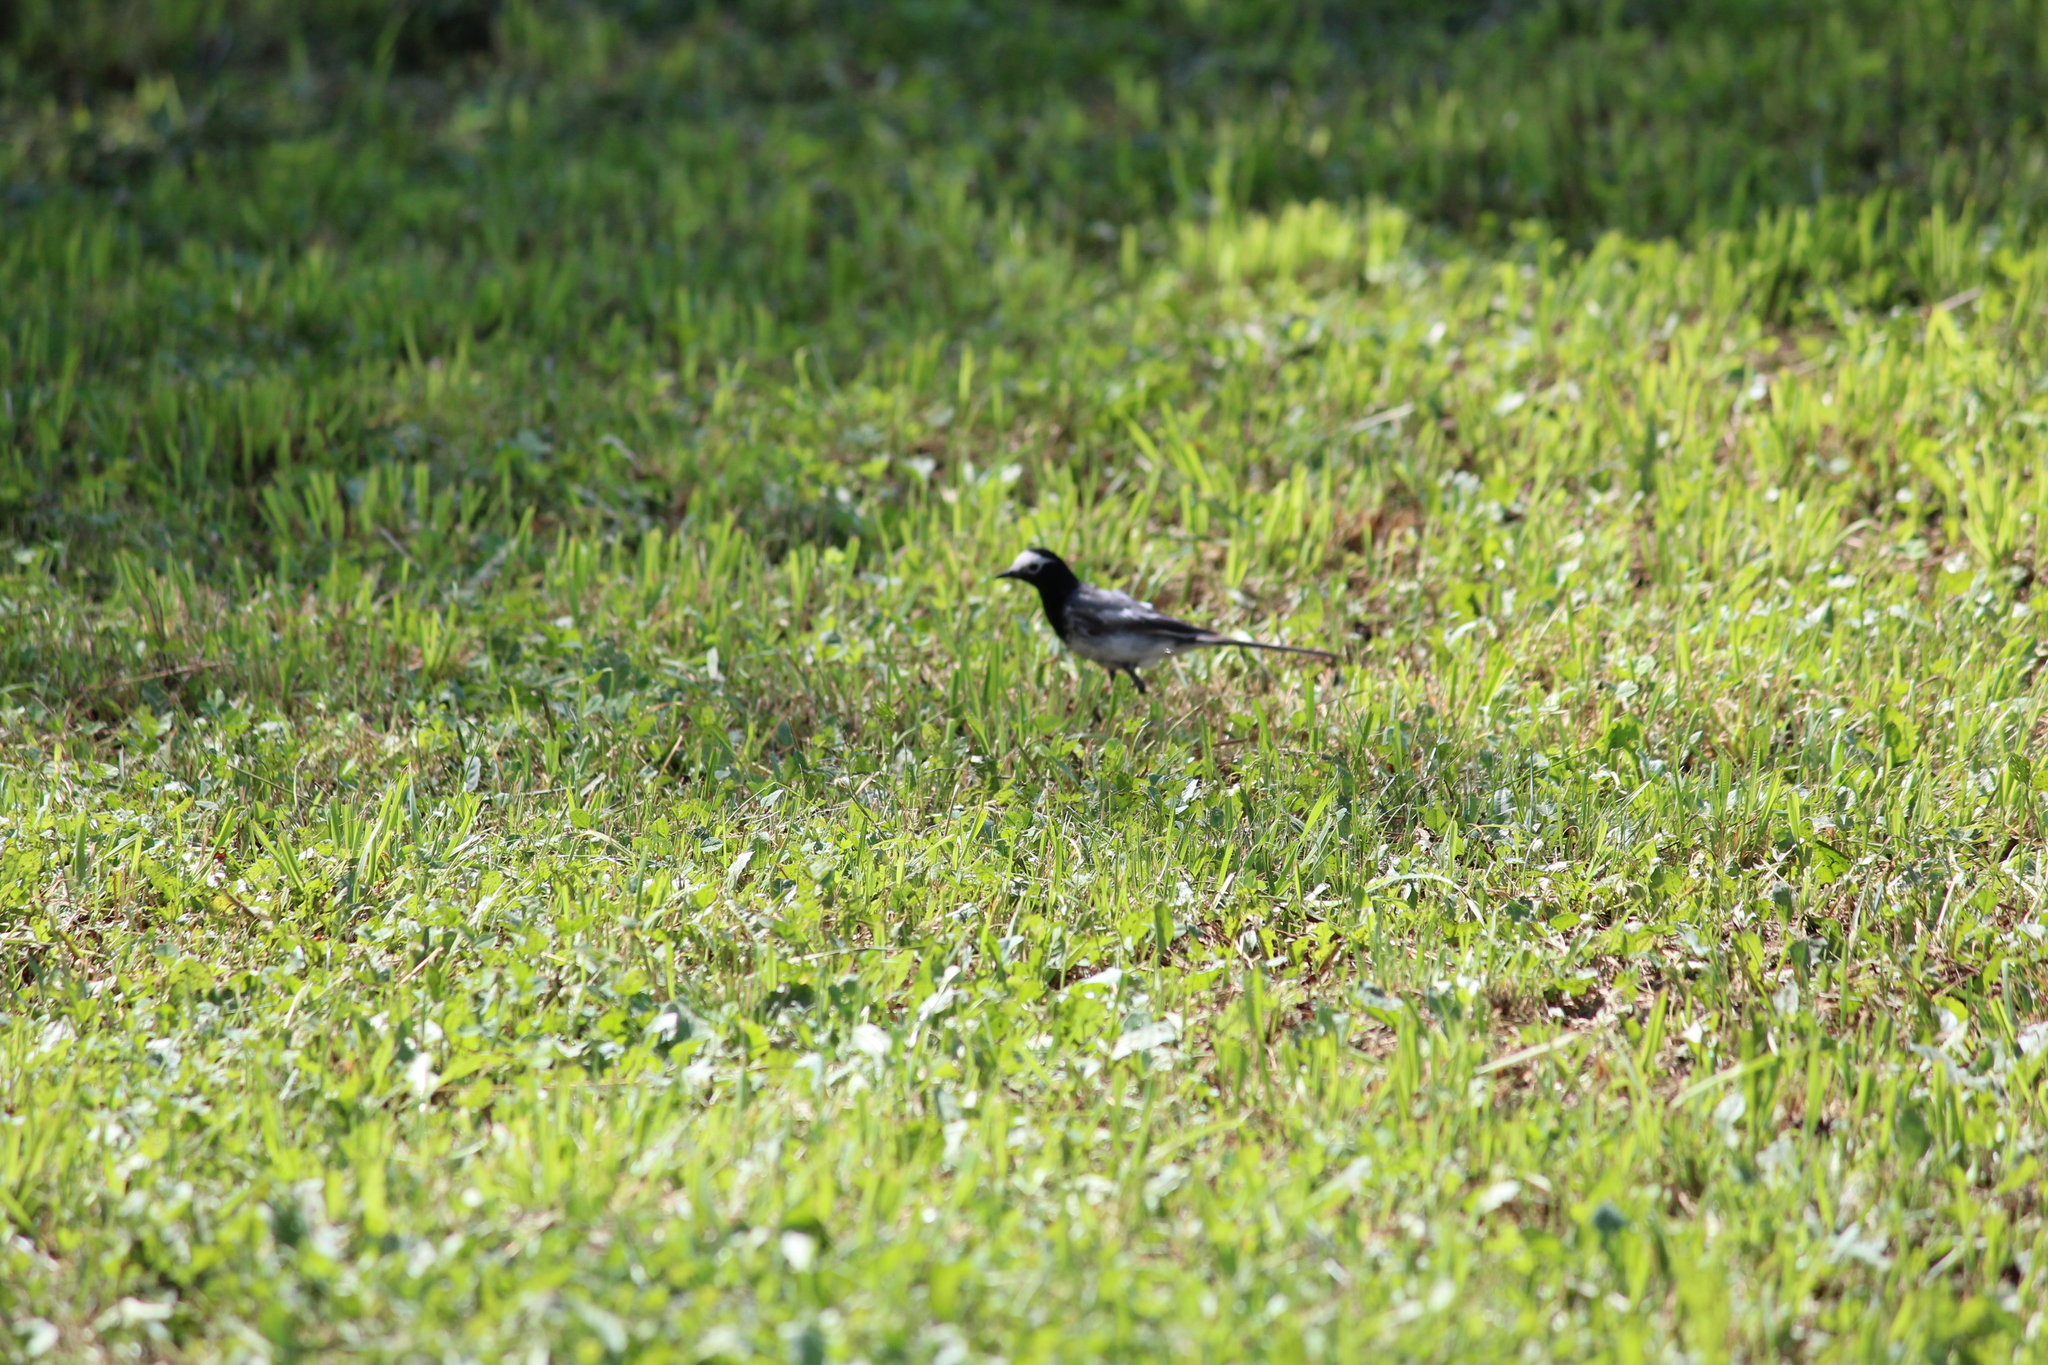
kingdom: Animalia
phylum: Chordata
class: Aves
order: Passeriformes
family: Motacillidae
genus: Motacilla
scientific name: Motacilla alba
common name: White wagtail
